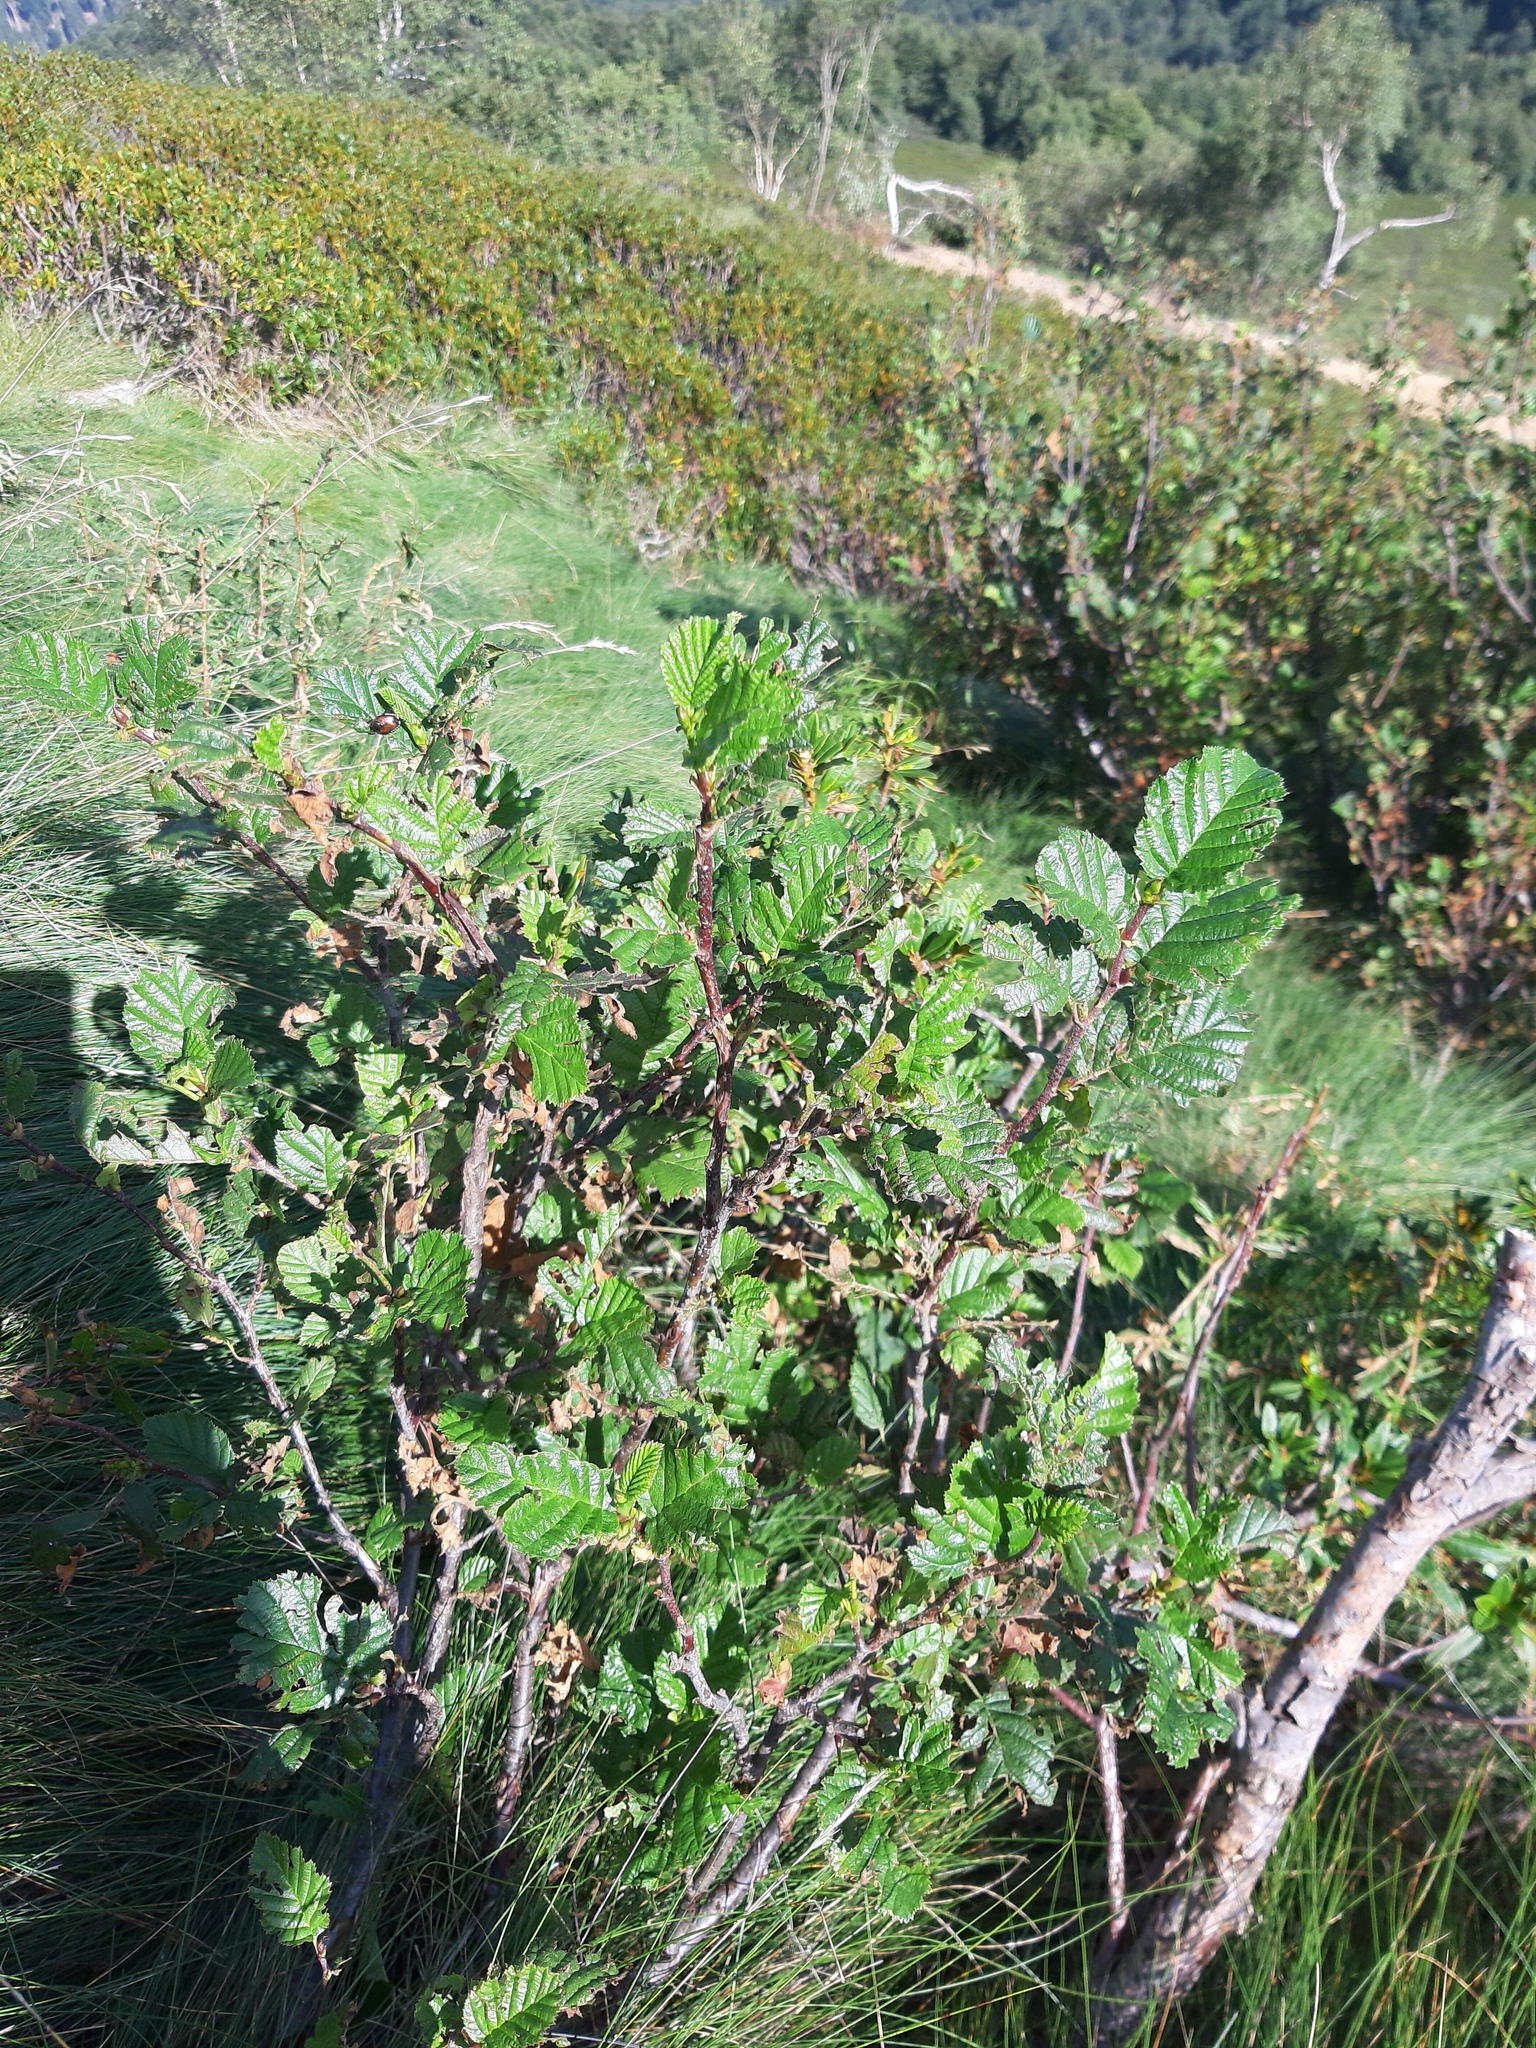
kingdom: Plantae
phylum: Tracheophyta
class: Magnoliopsida
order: Fagales
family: Betulaceae
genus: Alnus
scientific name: Alnus alnobetula
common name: Green alder
